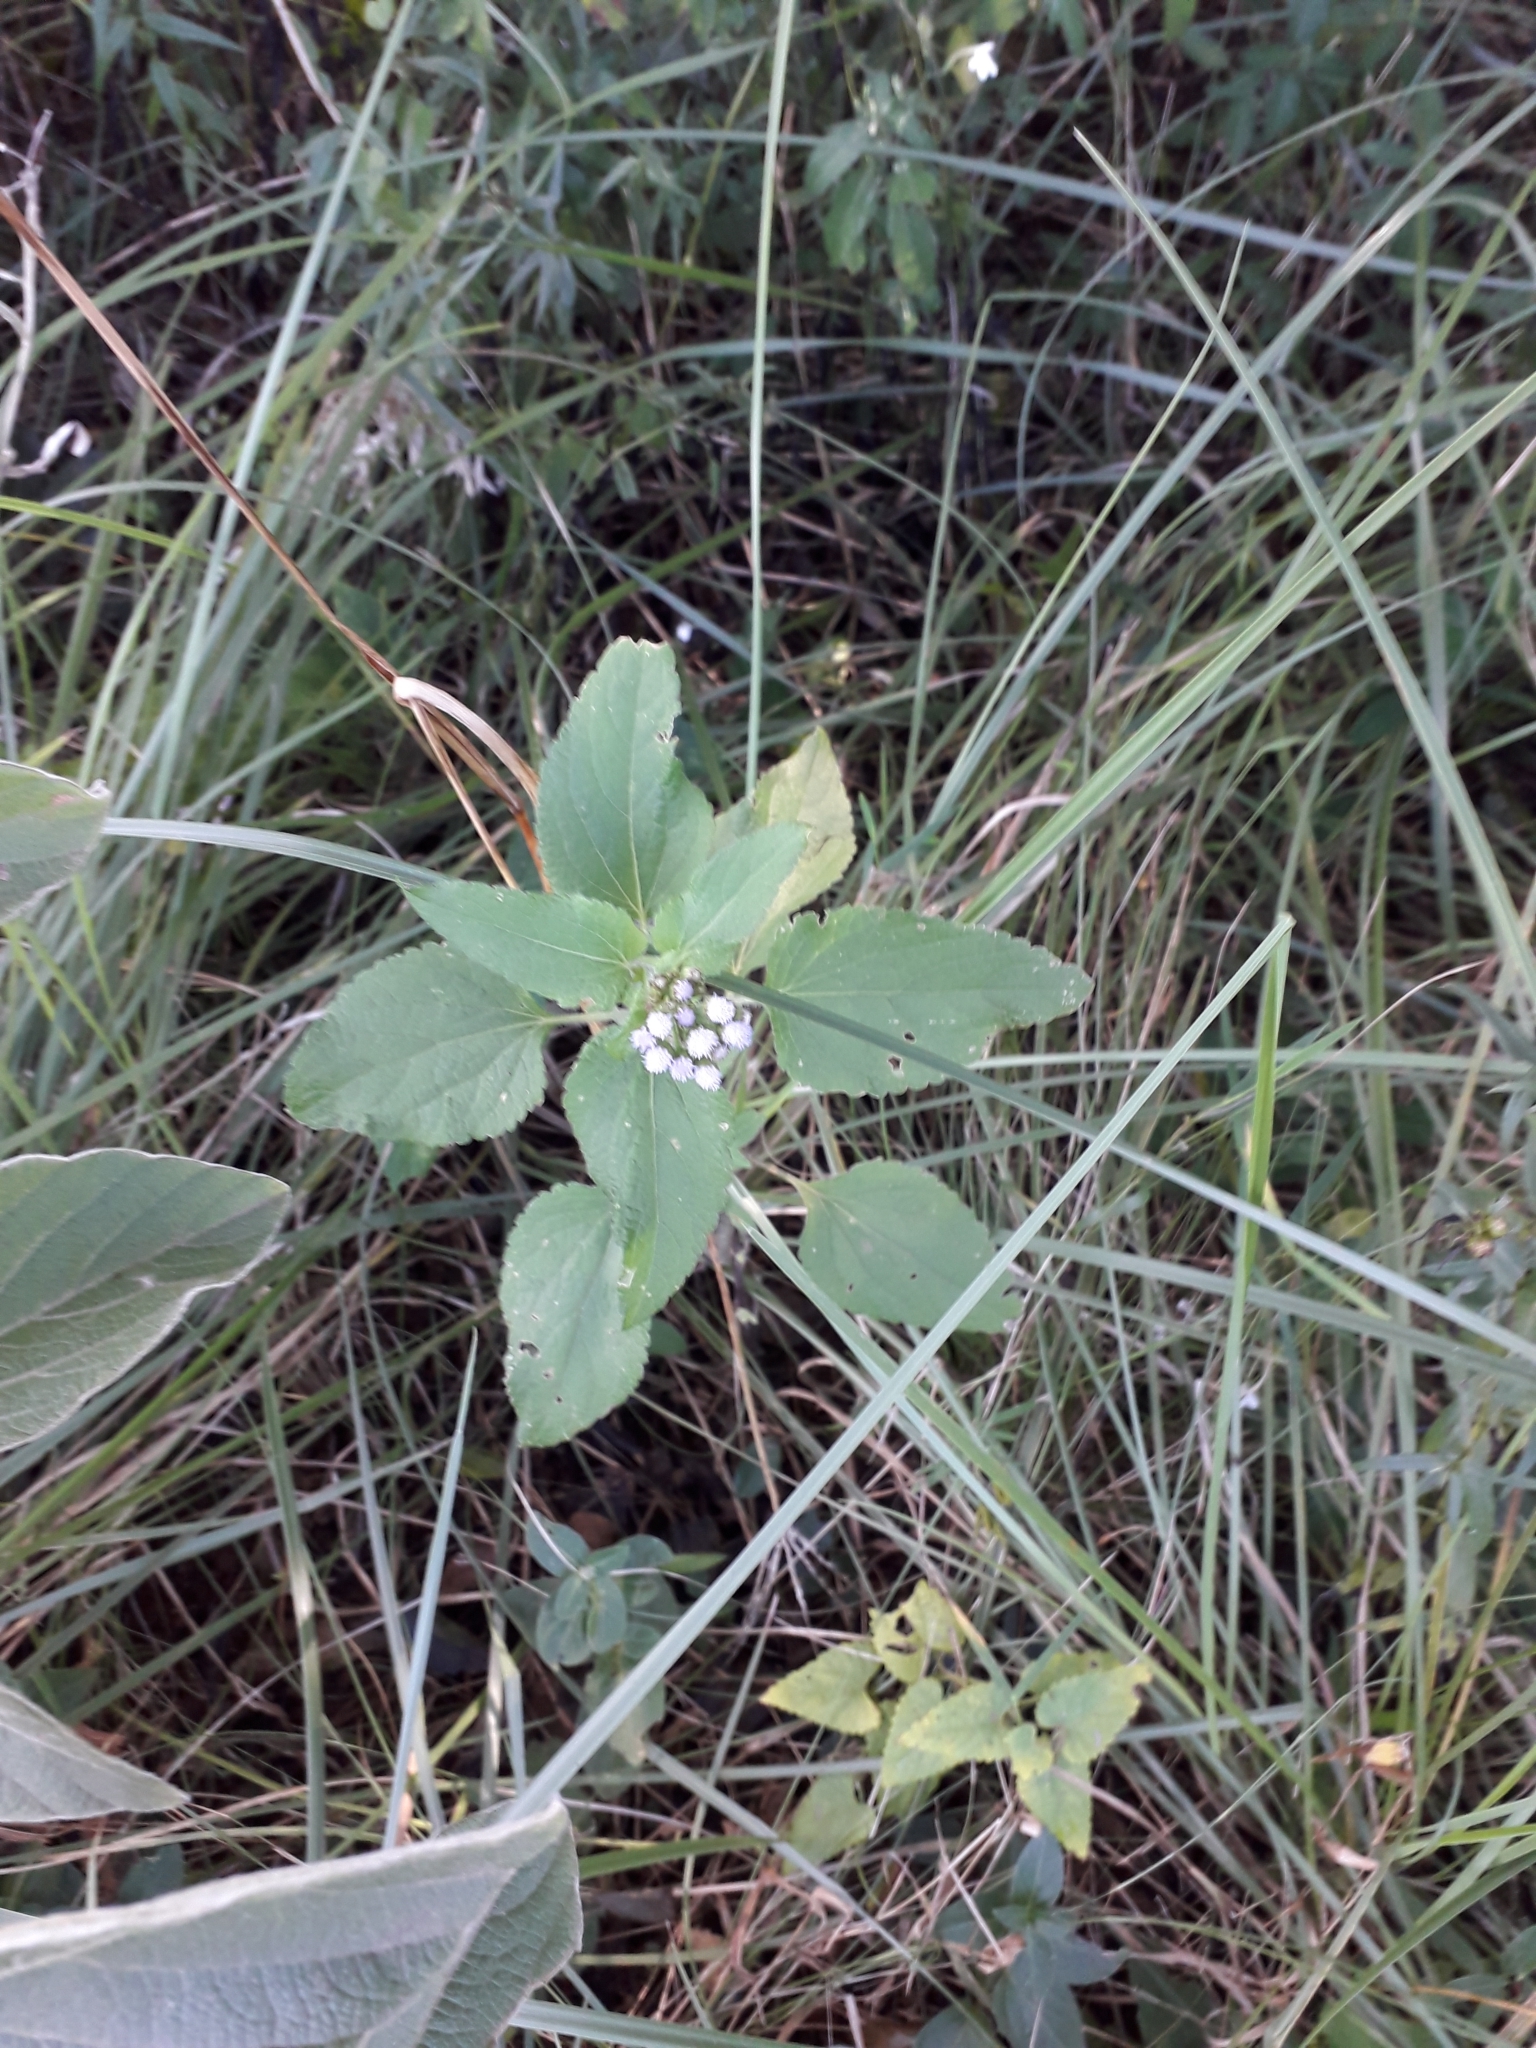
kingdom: Plantae
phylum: Tracheophyta
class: Magnoliopsida
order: Asterales
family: Asteraceae
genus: Ageratum
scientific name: Ageratum houstonianum
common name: Bluemink
